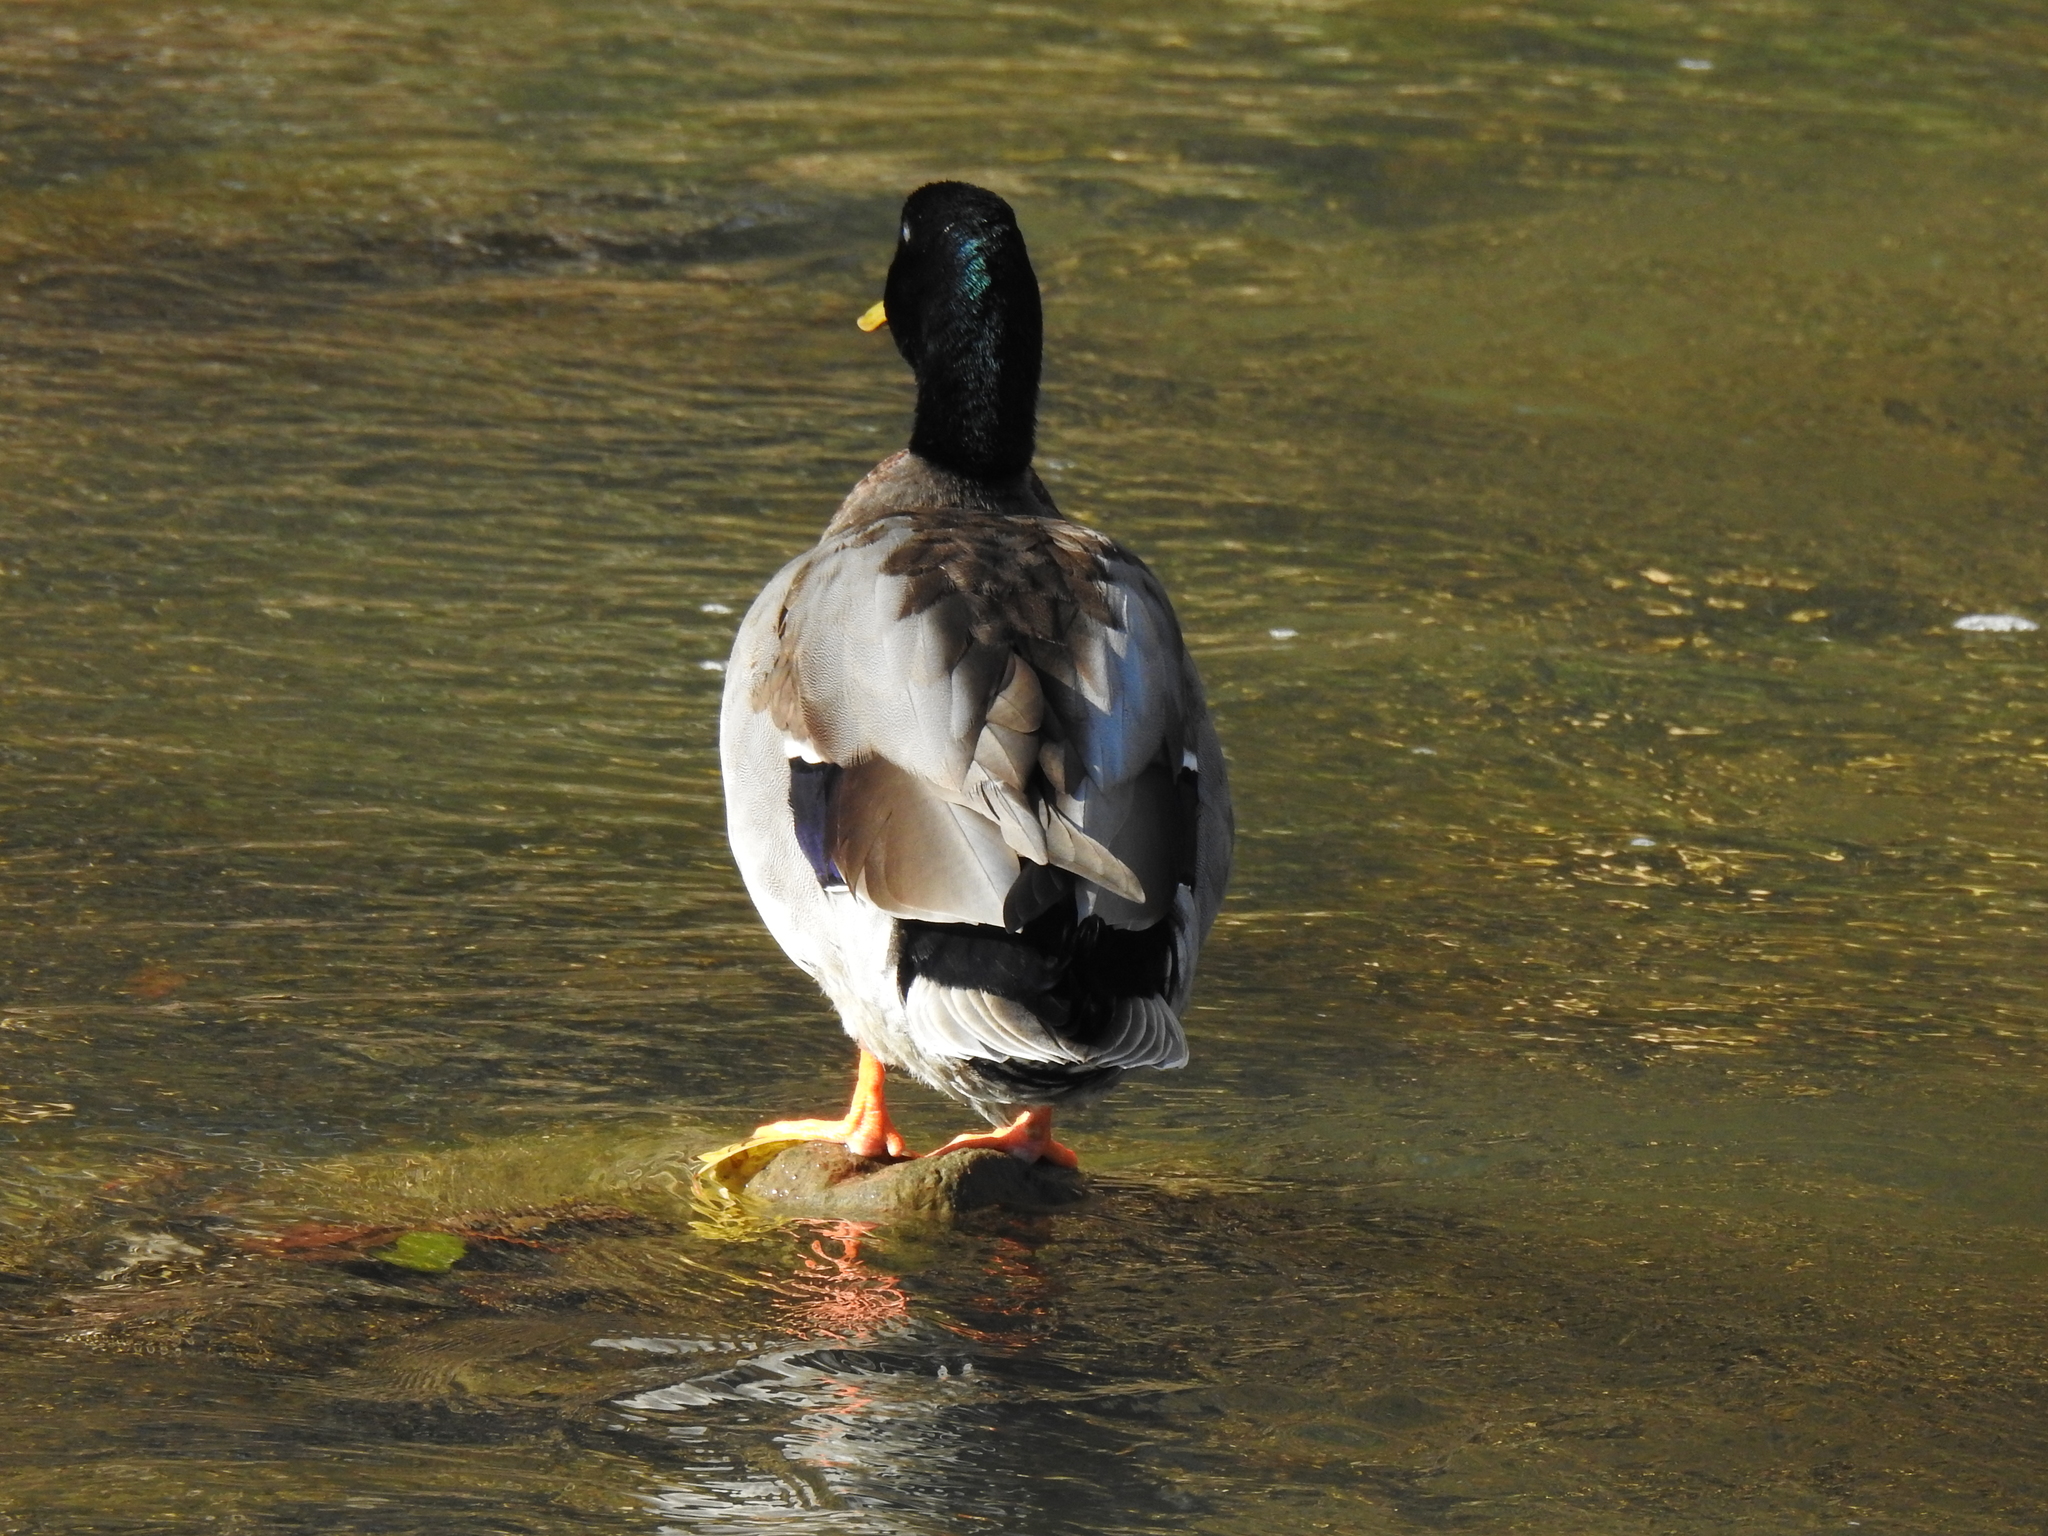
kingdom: Animalia
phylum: Chordata
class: Aves
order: Anseriformes
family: Anatidae
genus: Anas
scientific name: Anas platyrhynchos
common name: Mallard
